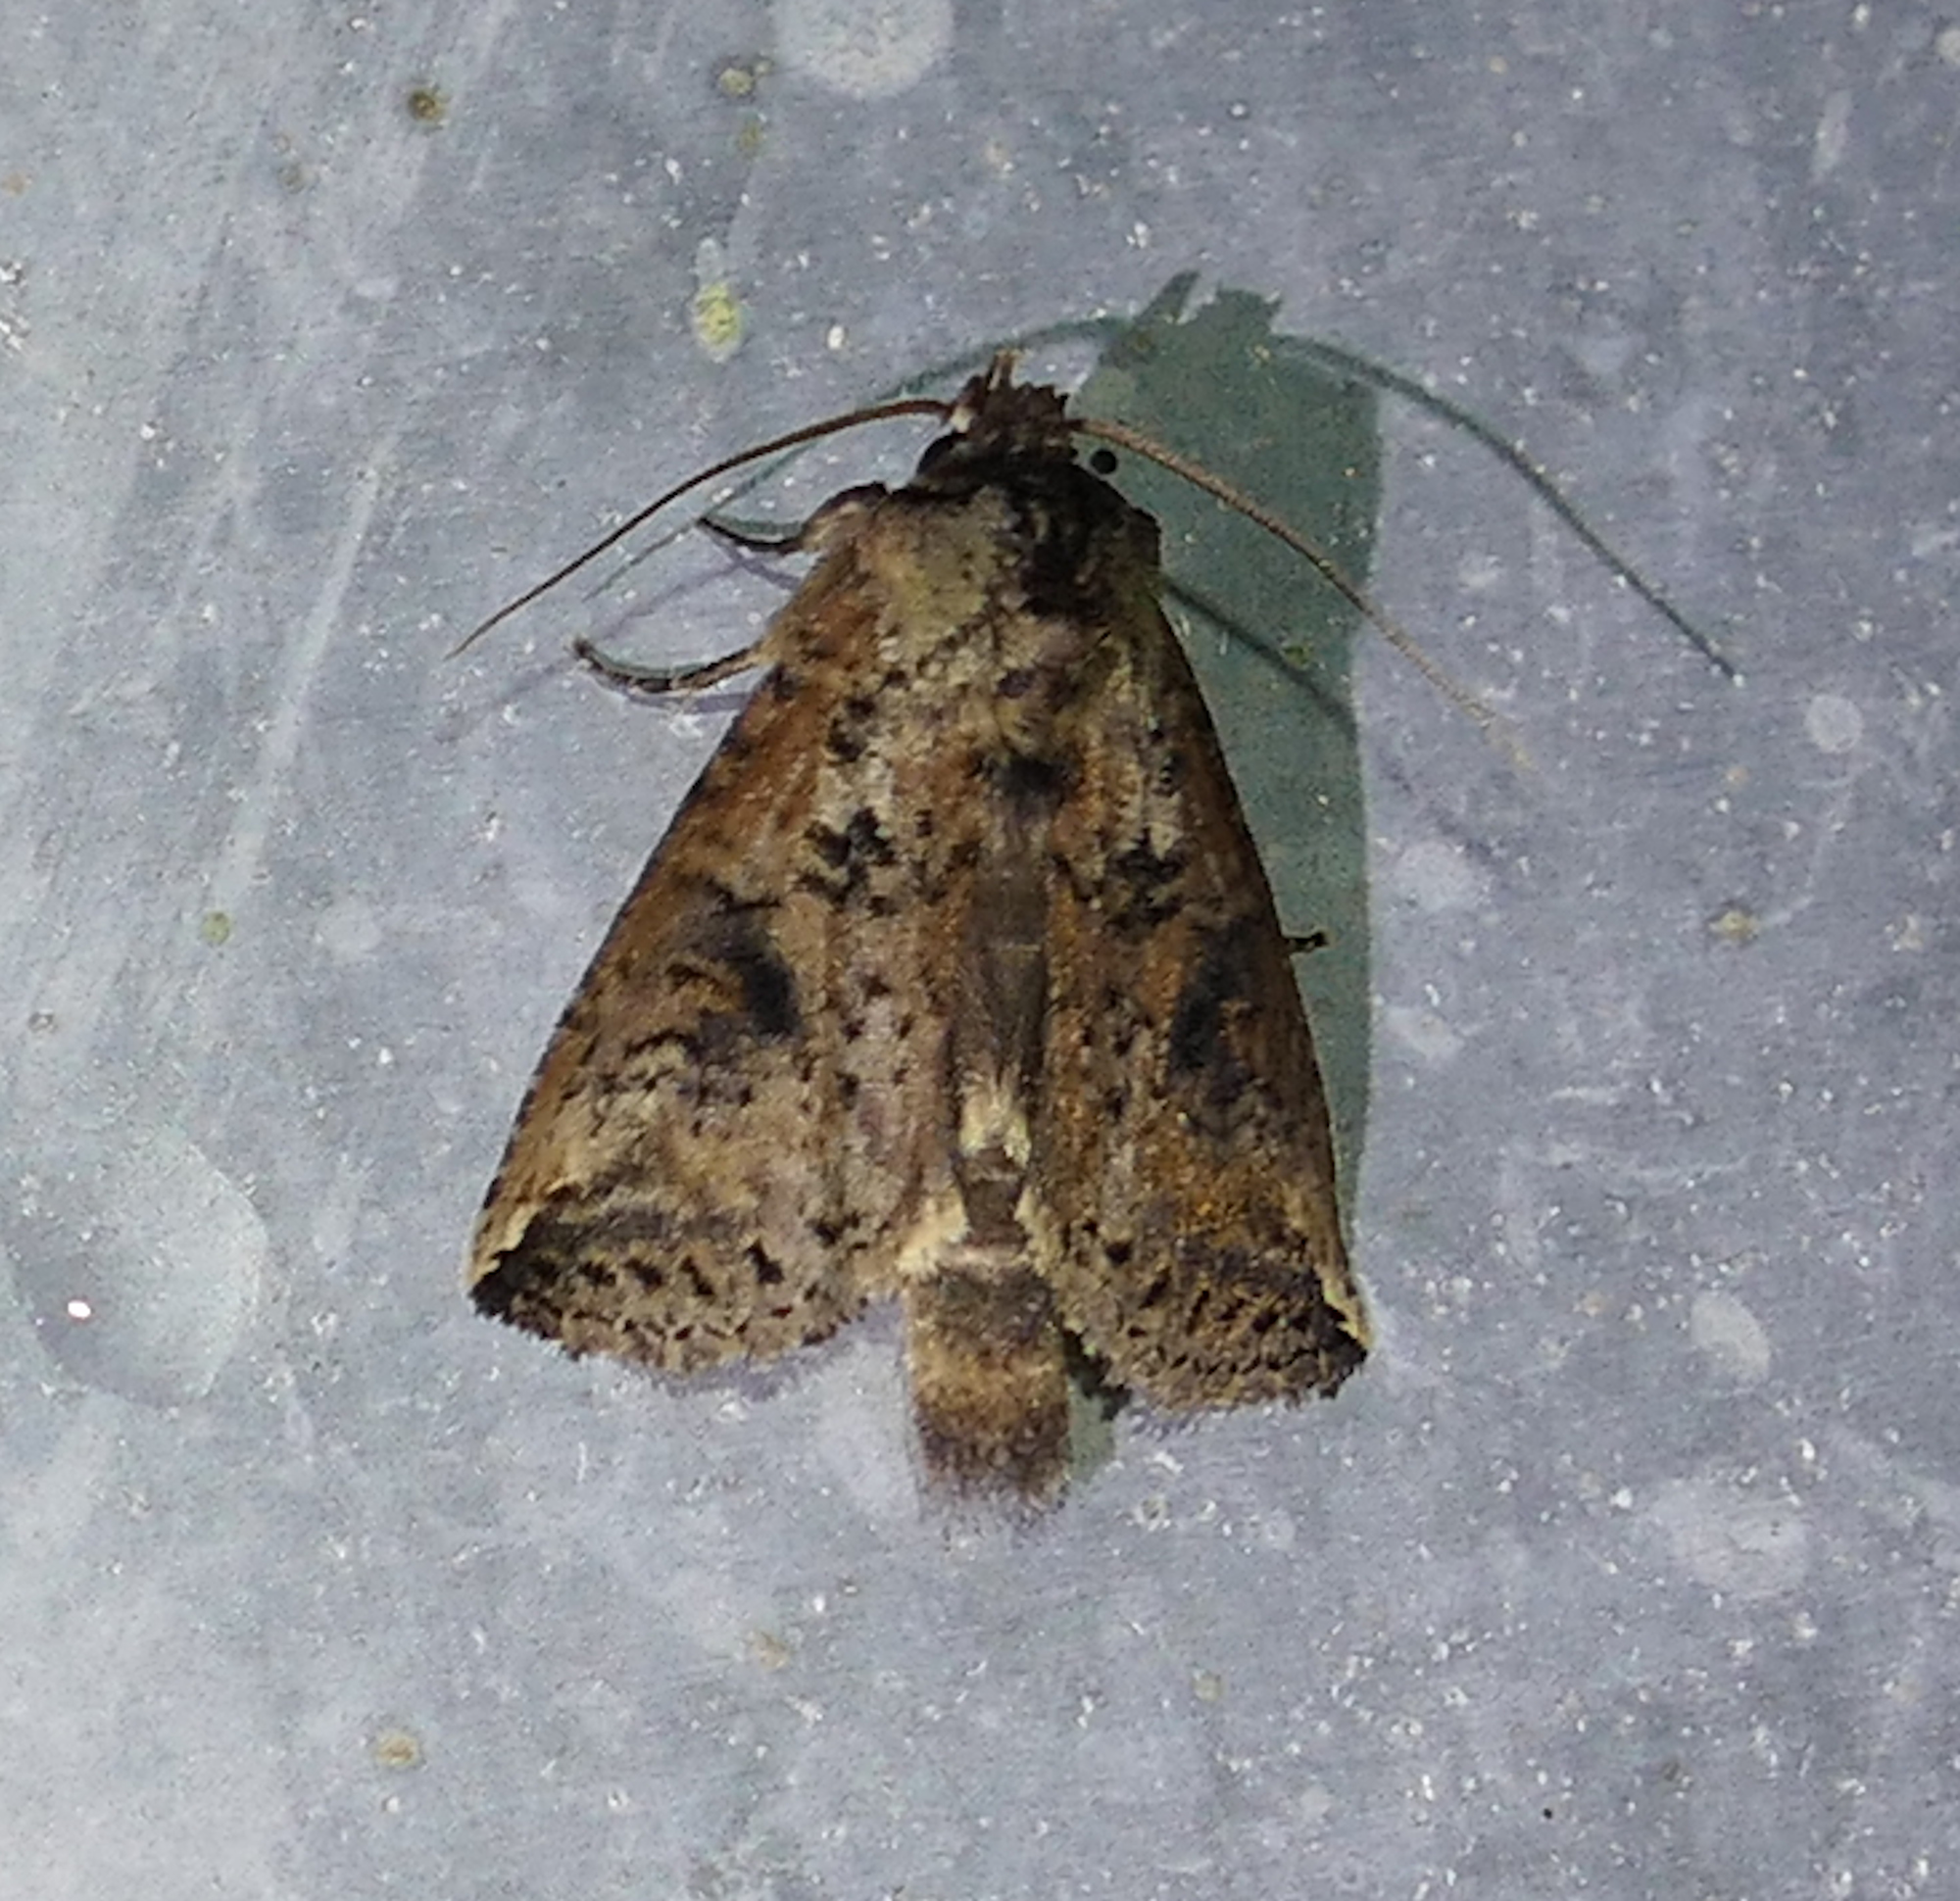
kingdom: Animalia
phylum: Arthropoda
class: Insecta
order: Lepidoptera
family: Notodontidae
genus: Elasmia
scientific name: Elasmia packardii
